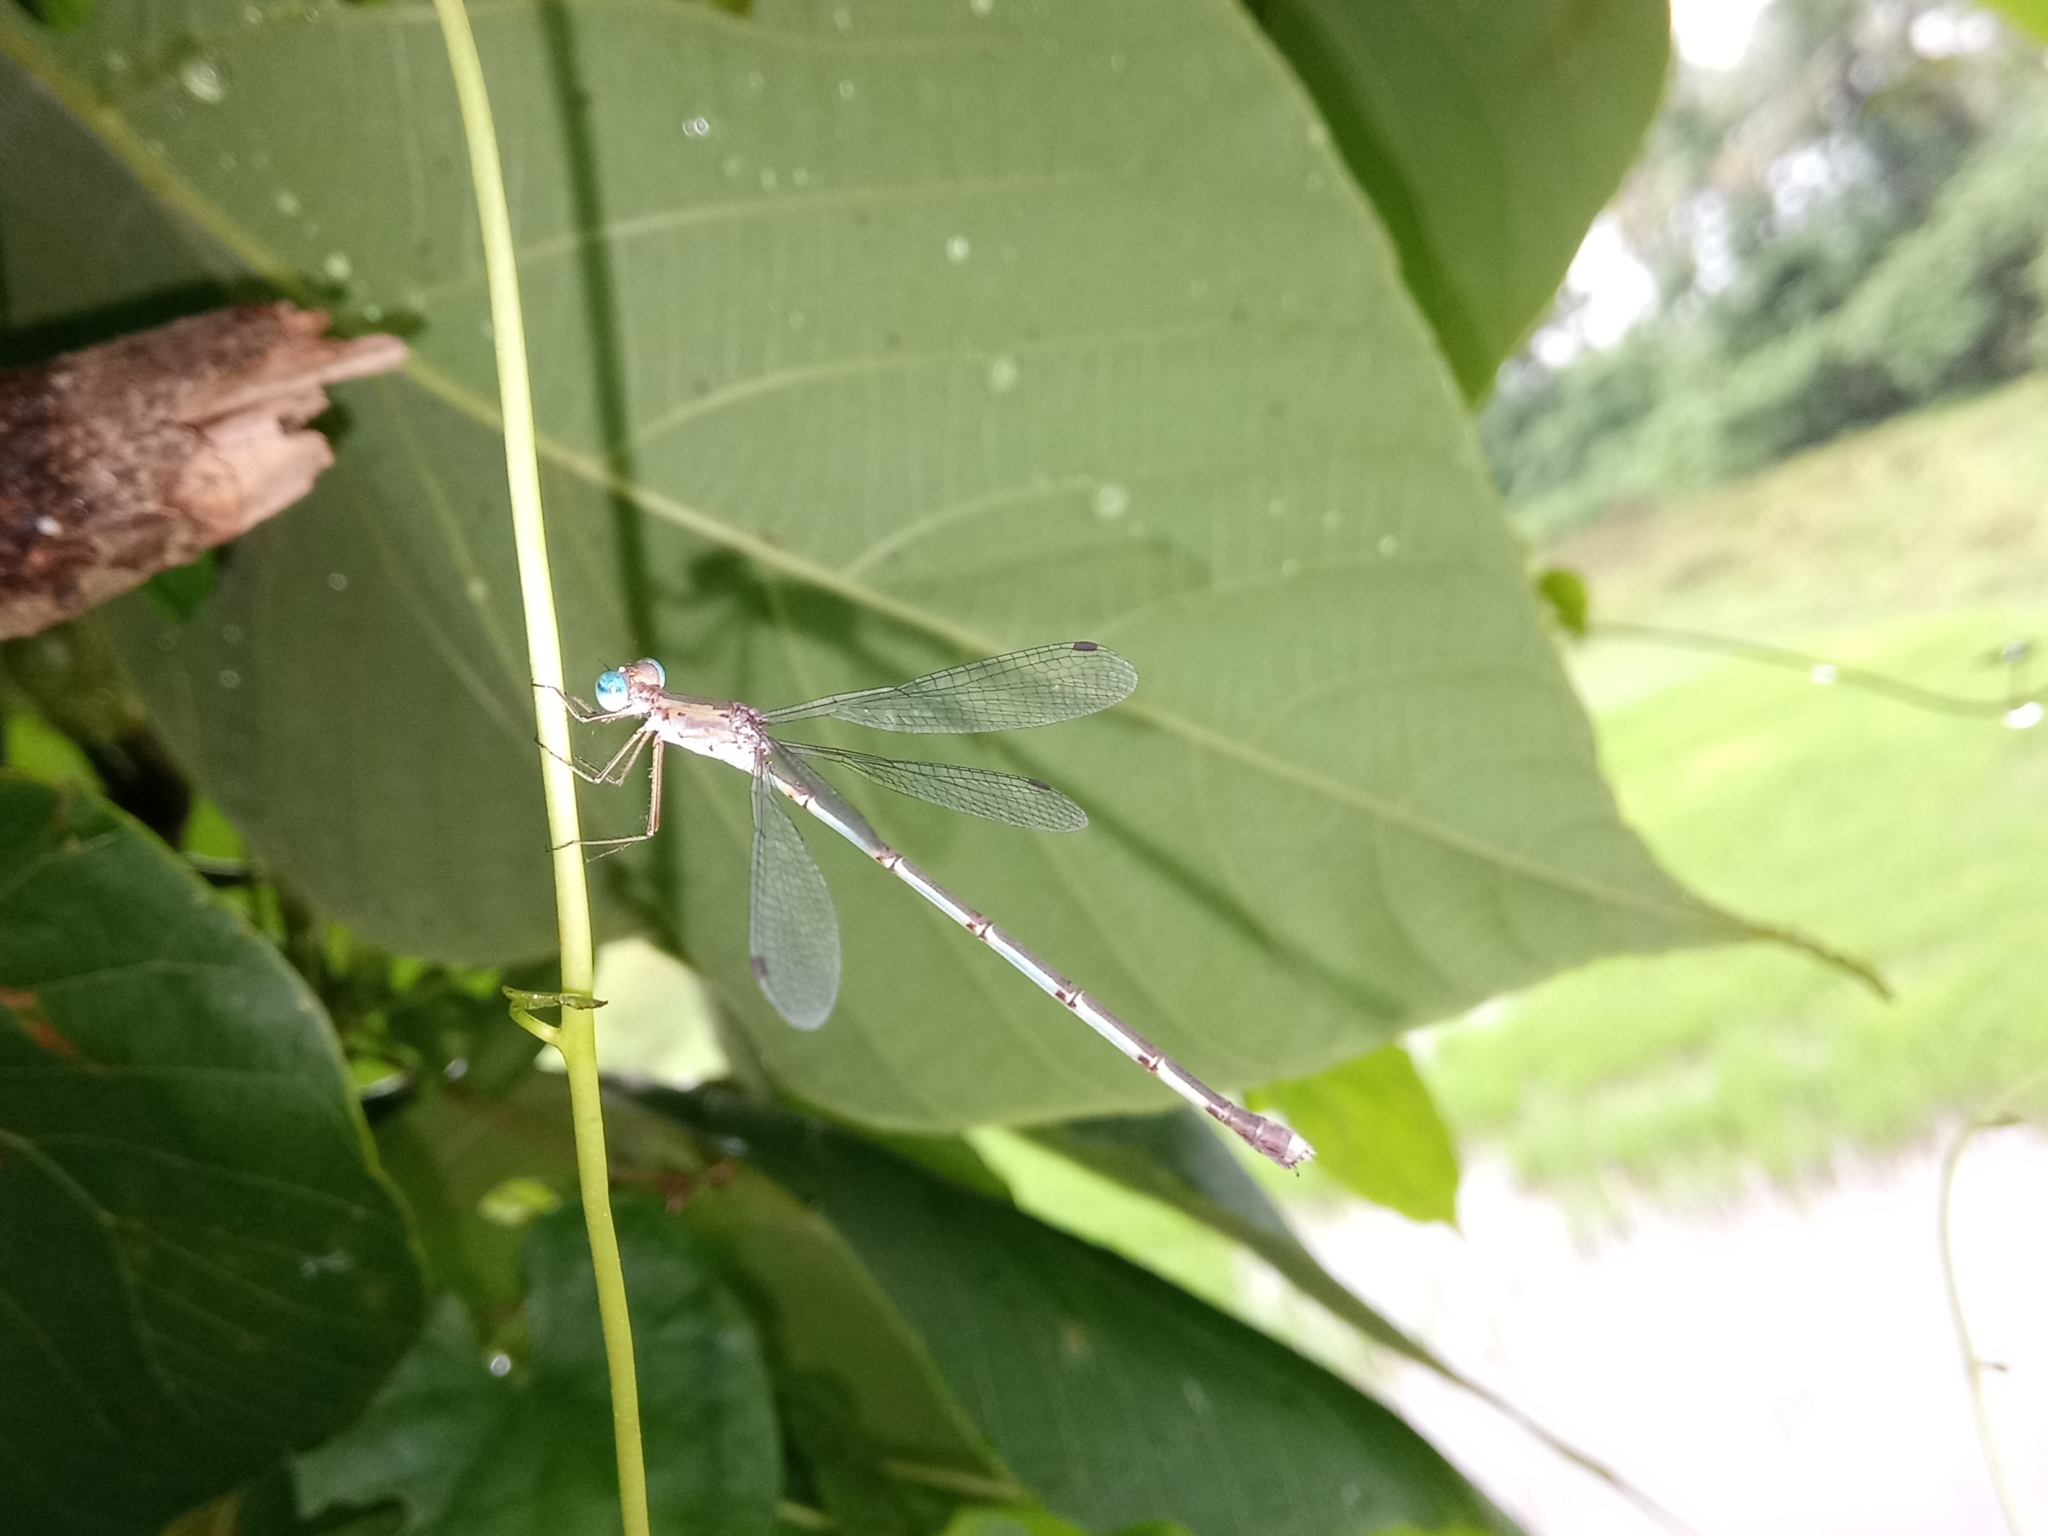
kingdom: Animalia
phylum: Arthropoda
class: Insecta
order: Odonata
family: Lestidae
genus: Lestes
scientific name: Lestes elatus
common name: Emerald spreadwing
